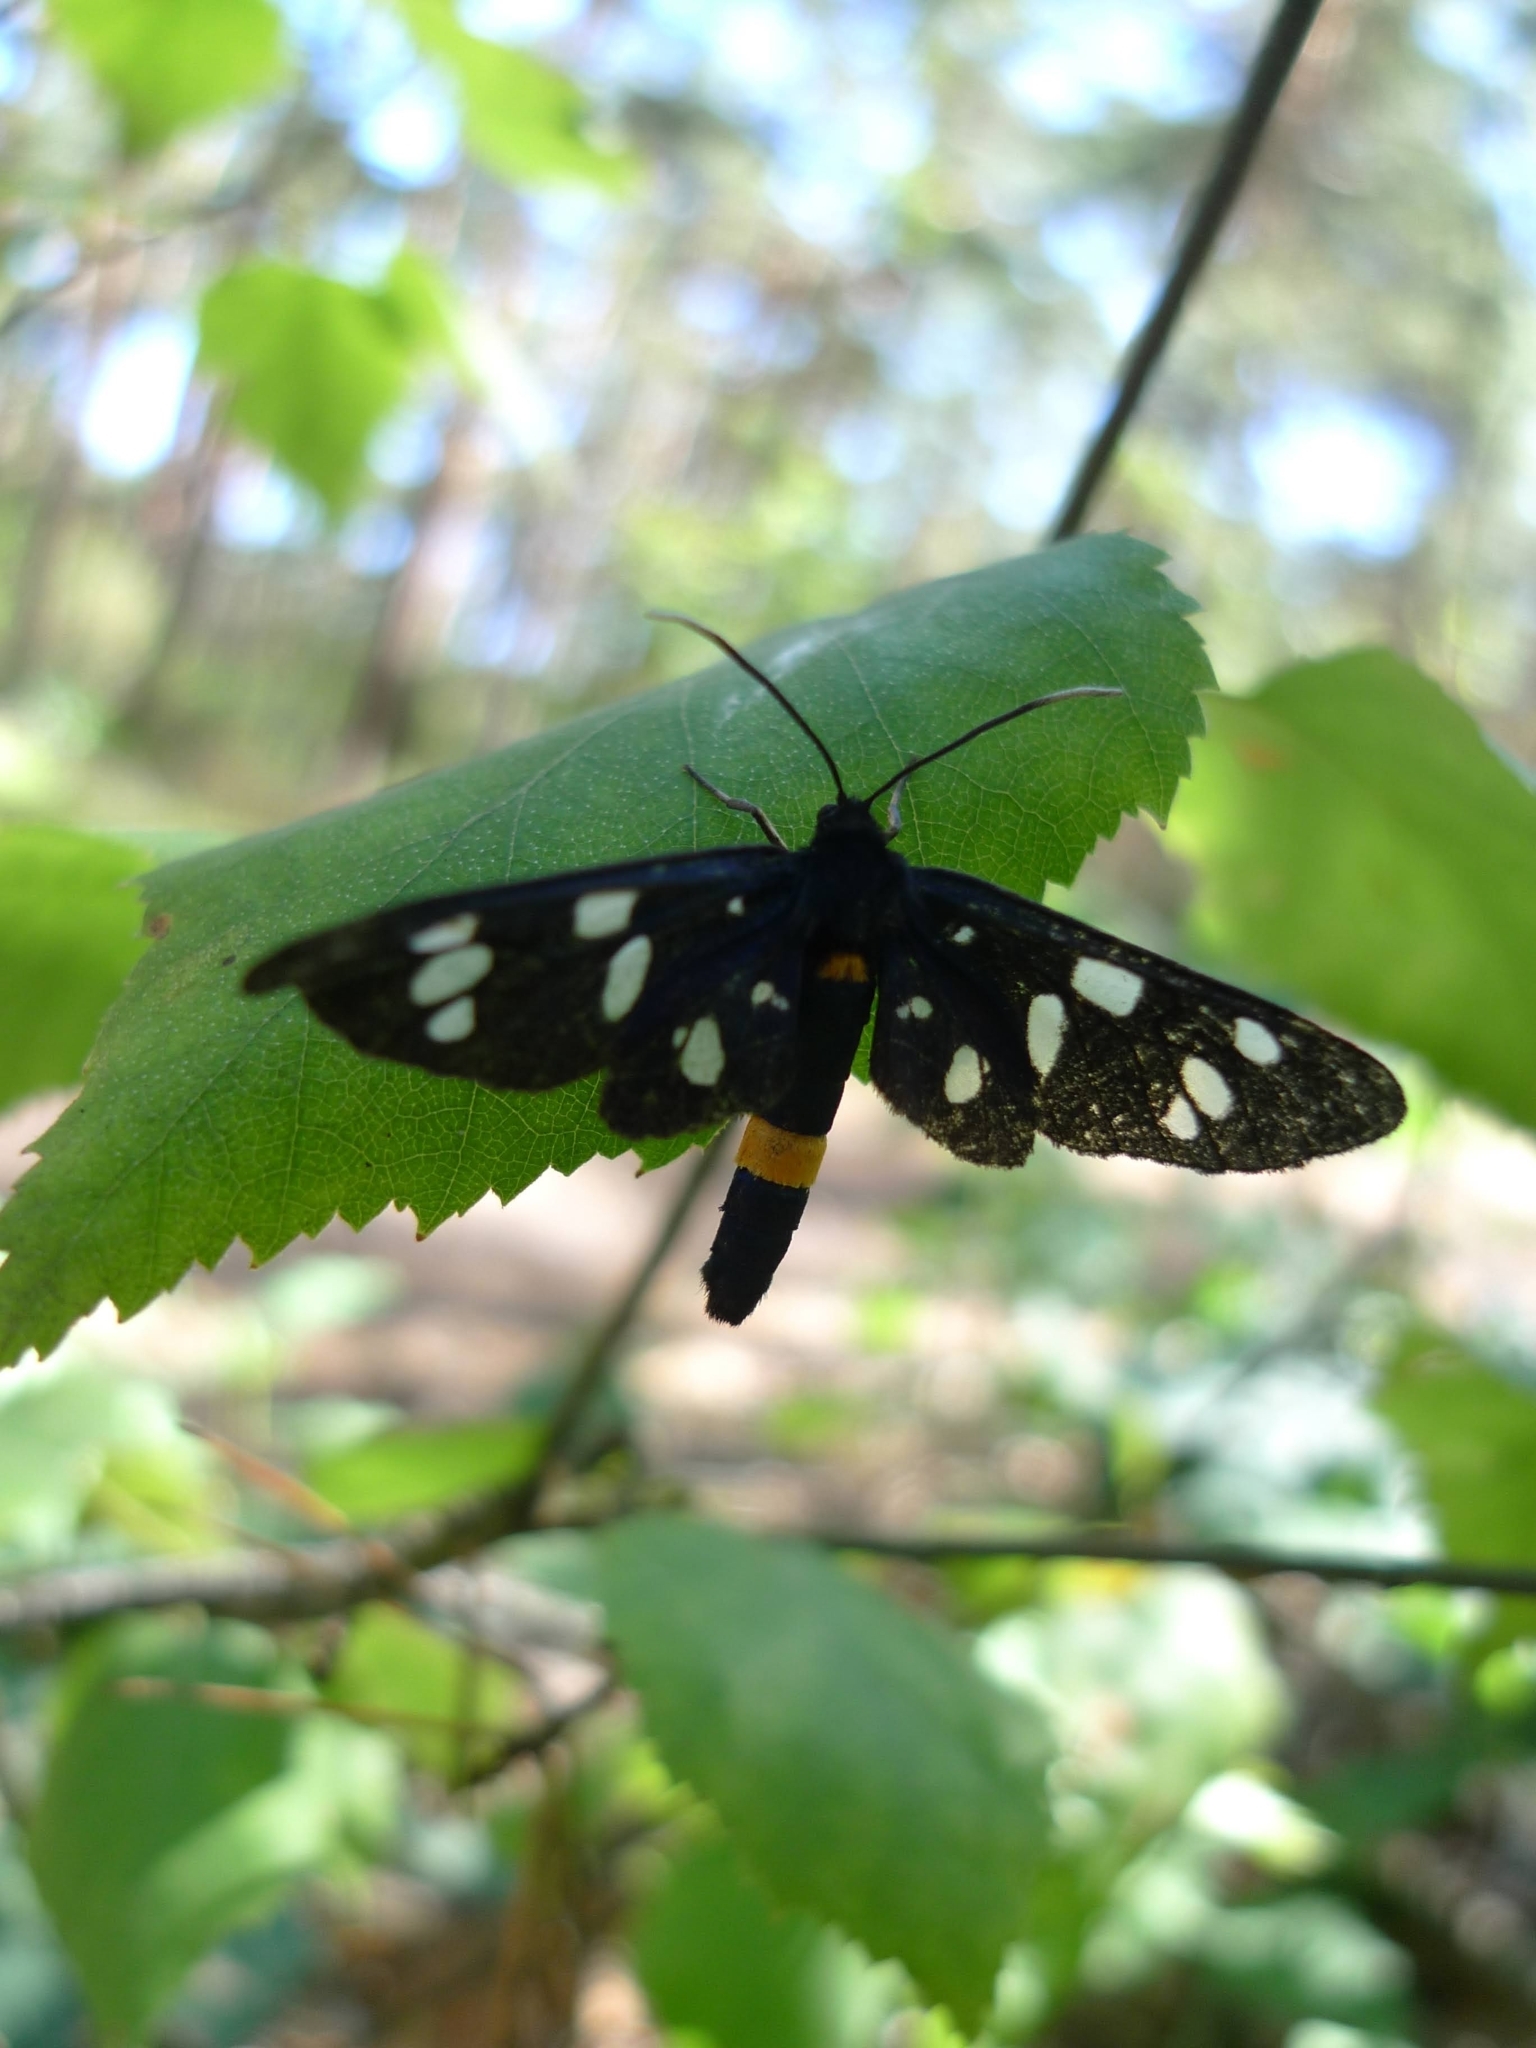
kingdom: Animalia
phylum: Arthropoda
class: Insecta
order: Lepidoptera
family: Erebidae
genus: Amata
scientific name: Amata phegea
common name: Nine-spotted
